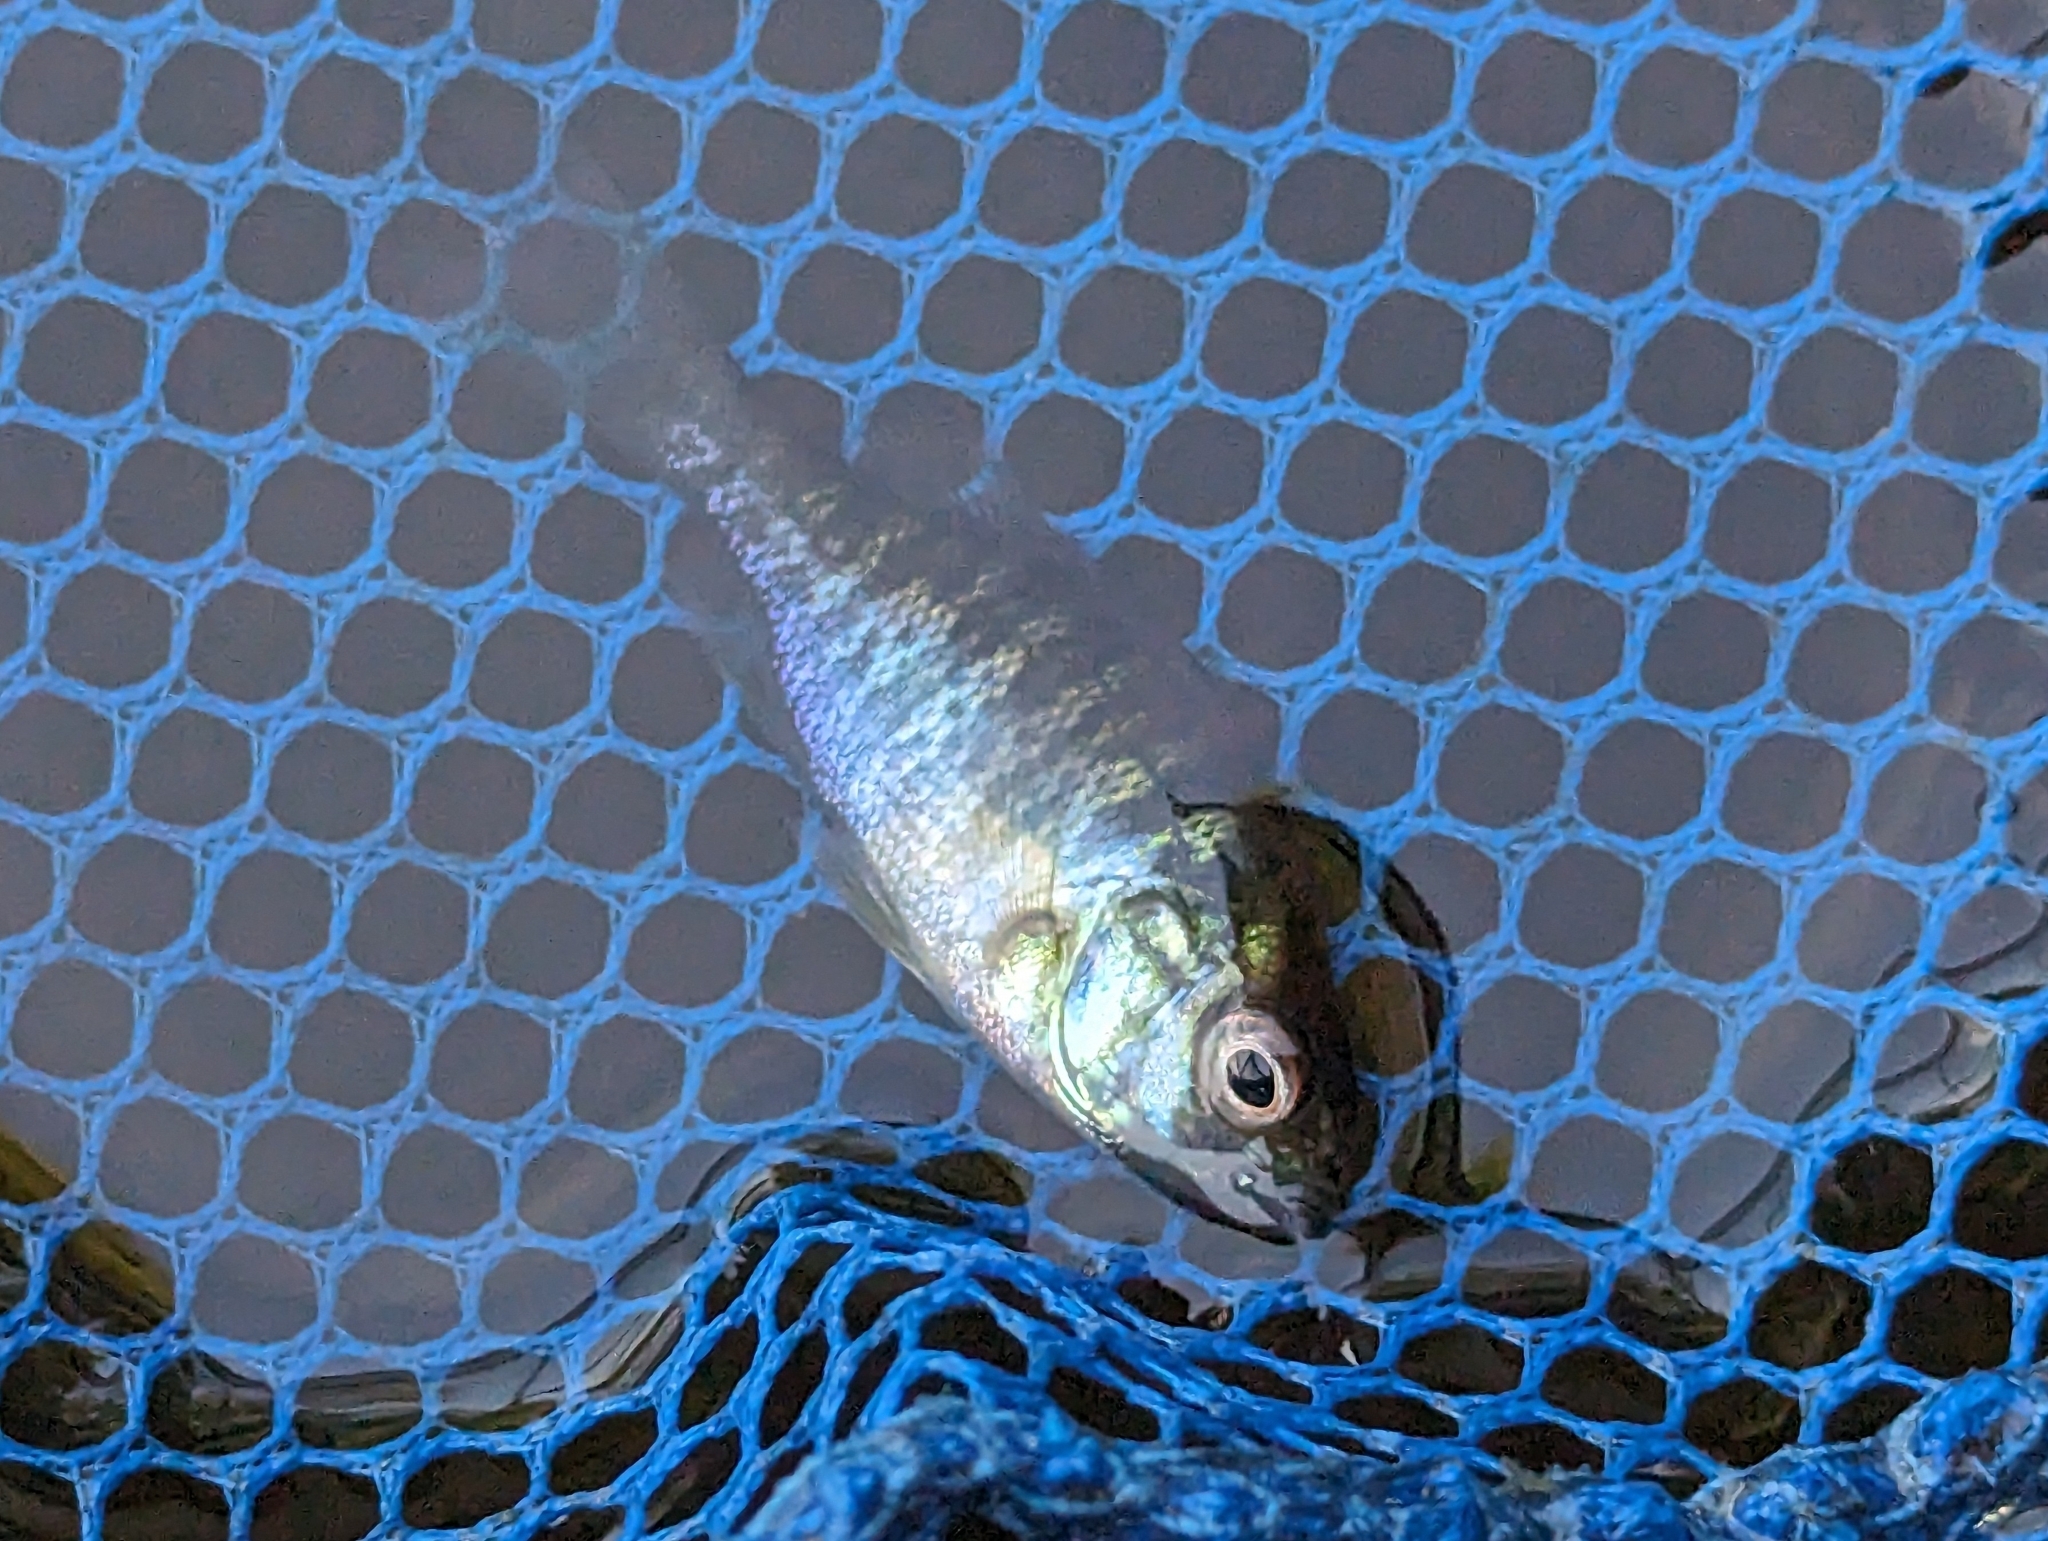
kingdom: Animalia
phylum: Chordata
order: Perciformes
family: Centrarchidae
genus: Lepomis
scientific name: Lepomis gibbosus
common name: Pumpkinseed
